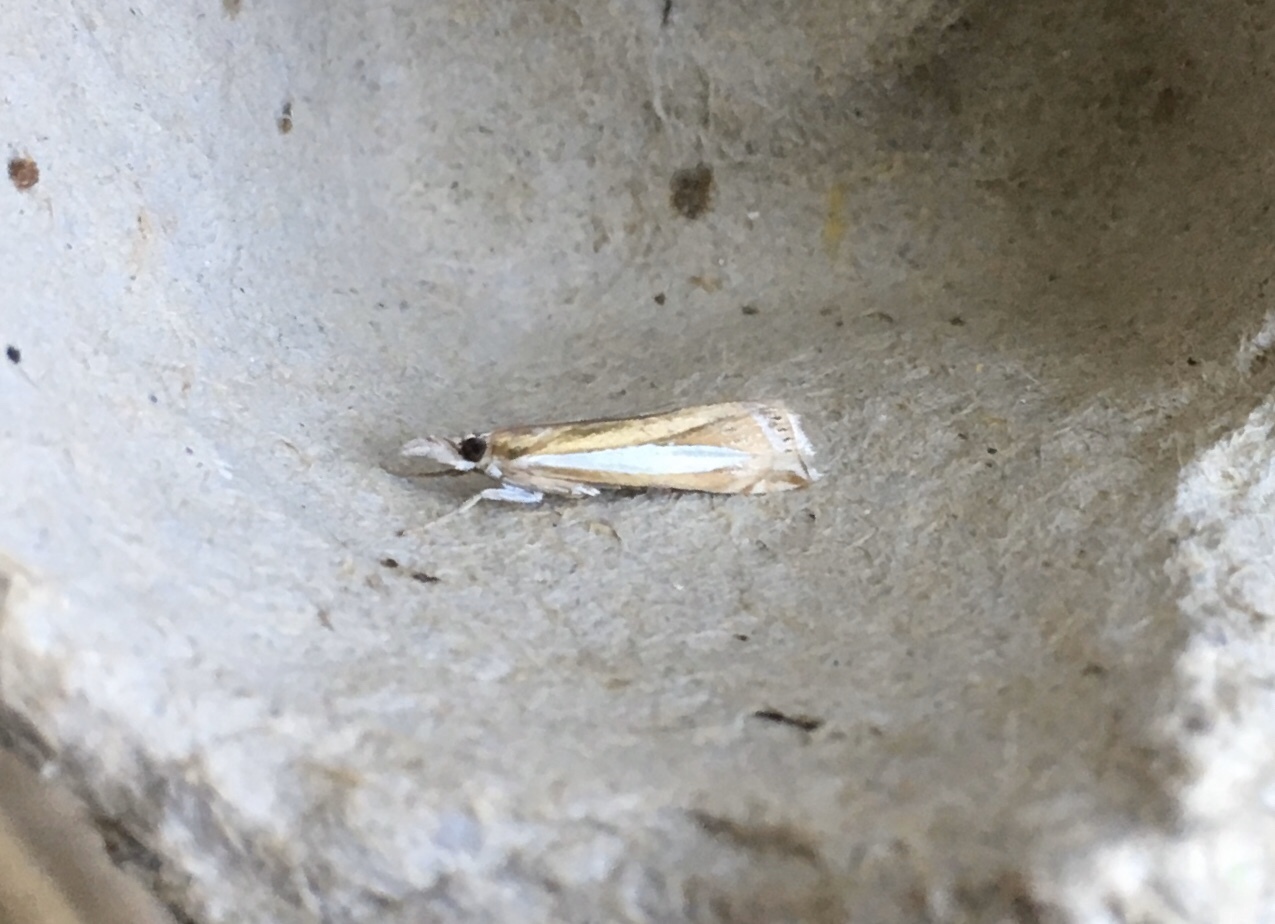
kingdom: Animalia
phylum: Arthropoda
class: Insecta
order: Lepidoptera
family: Crambidae
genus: Crambus
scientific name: Crambus praefectellus
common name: Common grass-veneer
